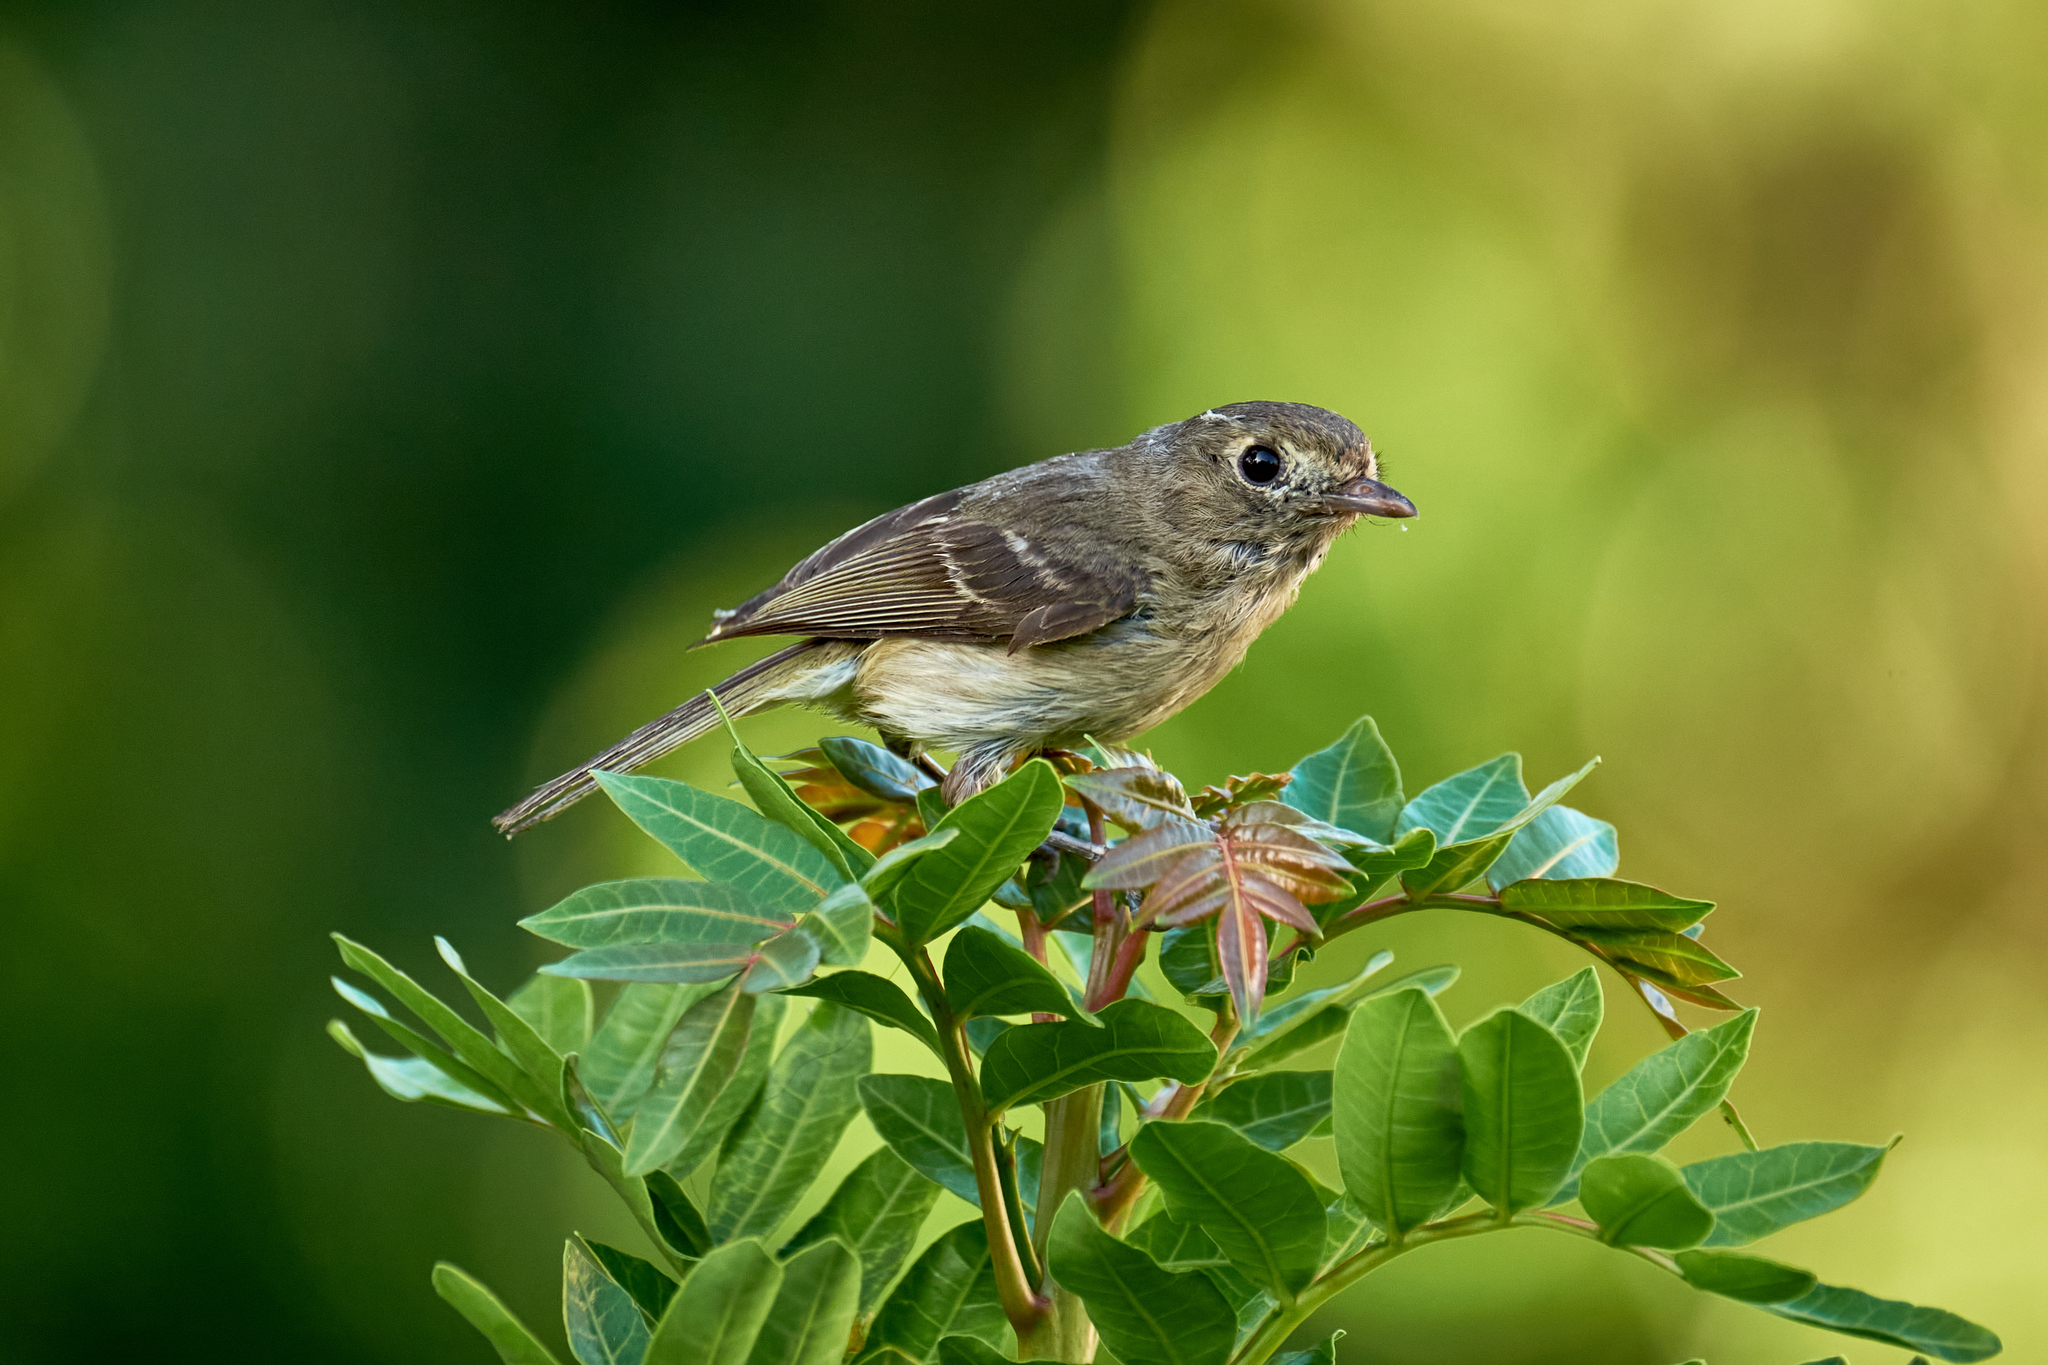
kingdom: Animalia
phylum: Chordata
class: Aves
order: Passeriformes
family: Vireonidae
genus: Vireo
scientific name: Vireo huttoni
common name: Hutton's vireo
